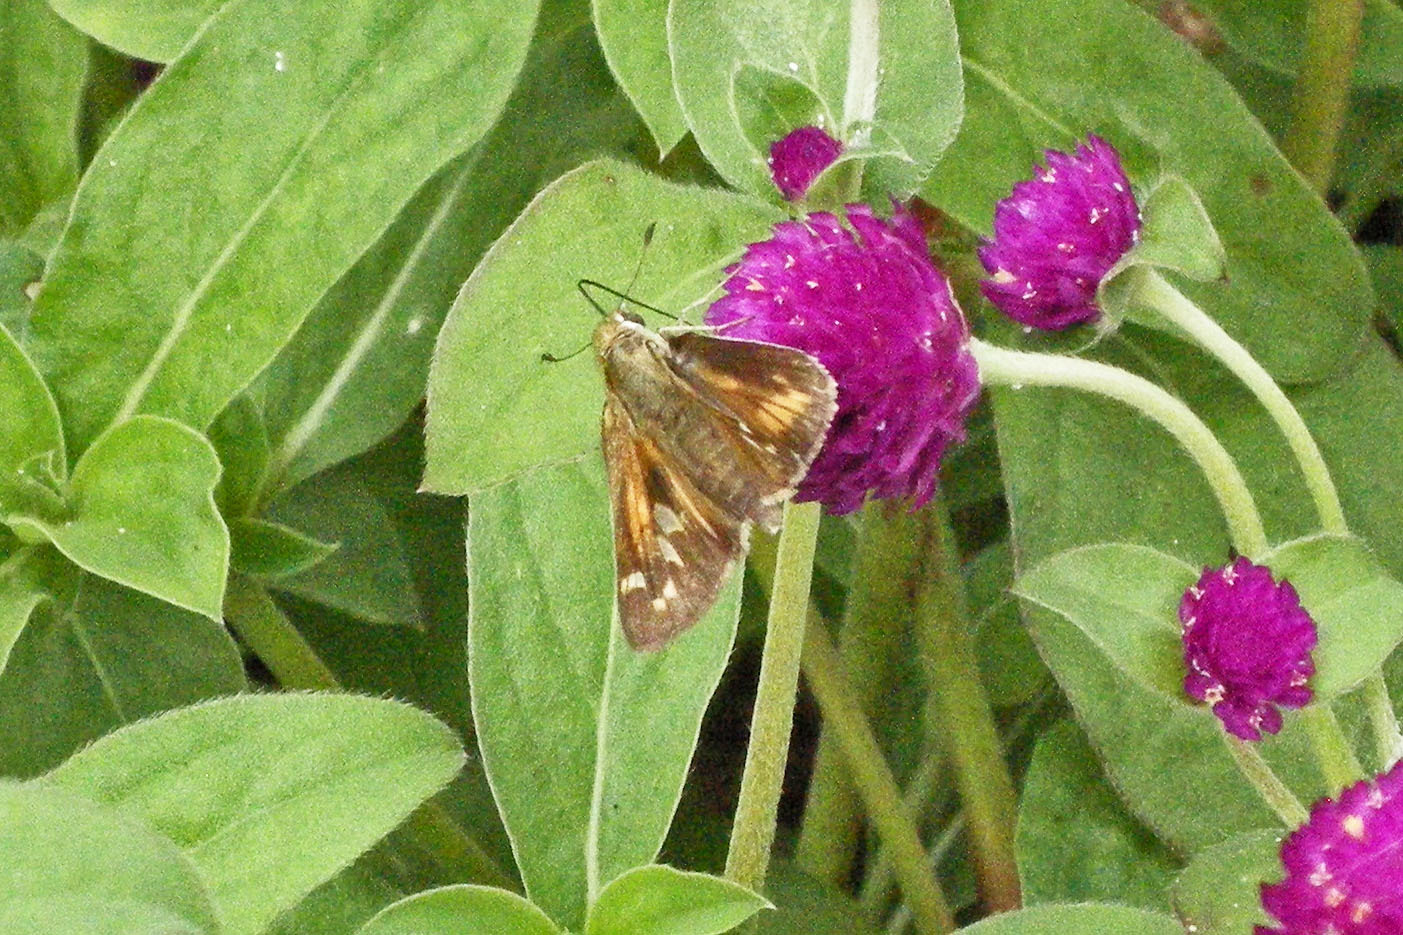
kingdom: Animalia
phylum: Arthropoda
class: Insecta
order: Lepidoptera
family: Hesperiidae
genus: Atalopedes
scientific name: Atalopedes
